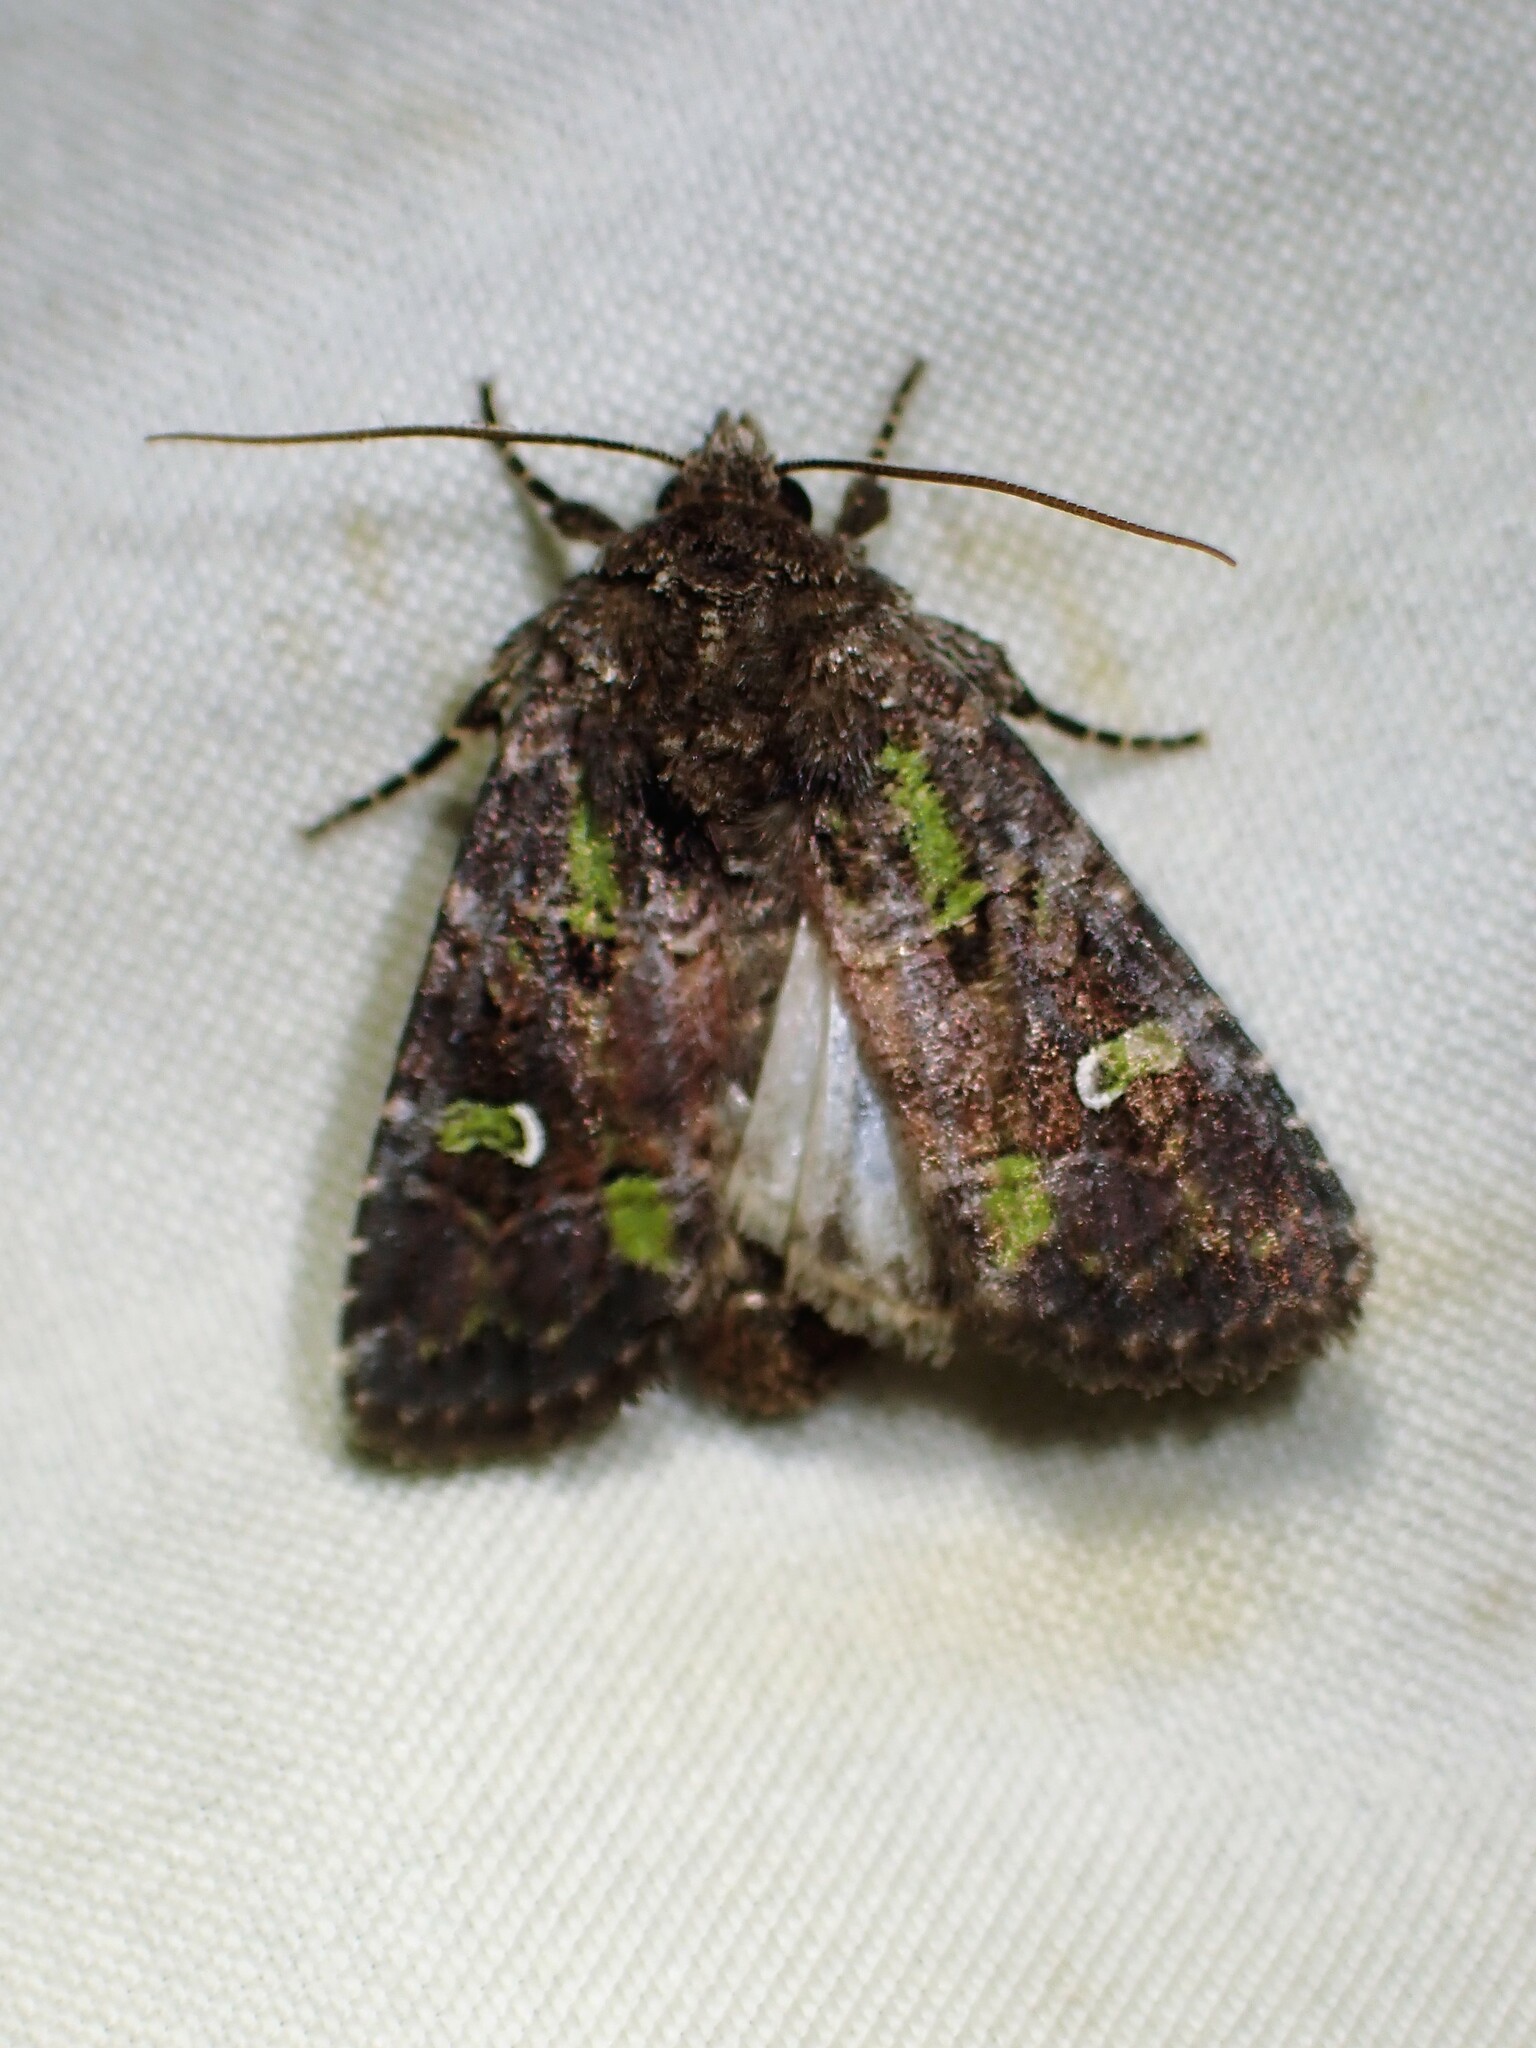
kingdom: Animalia
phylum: Arthropoda
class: Insecta
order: Lepidoptera
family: Noctuidae
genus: Lacinipolia
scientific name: Lacinipolia renigera
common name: Kidney-spotted minor
